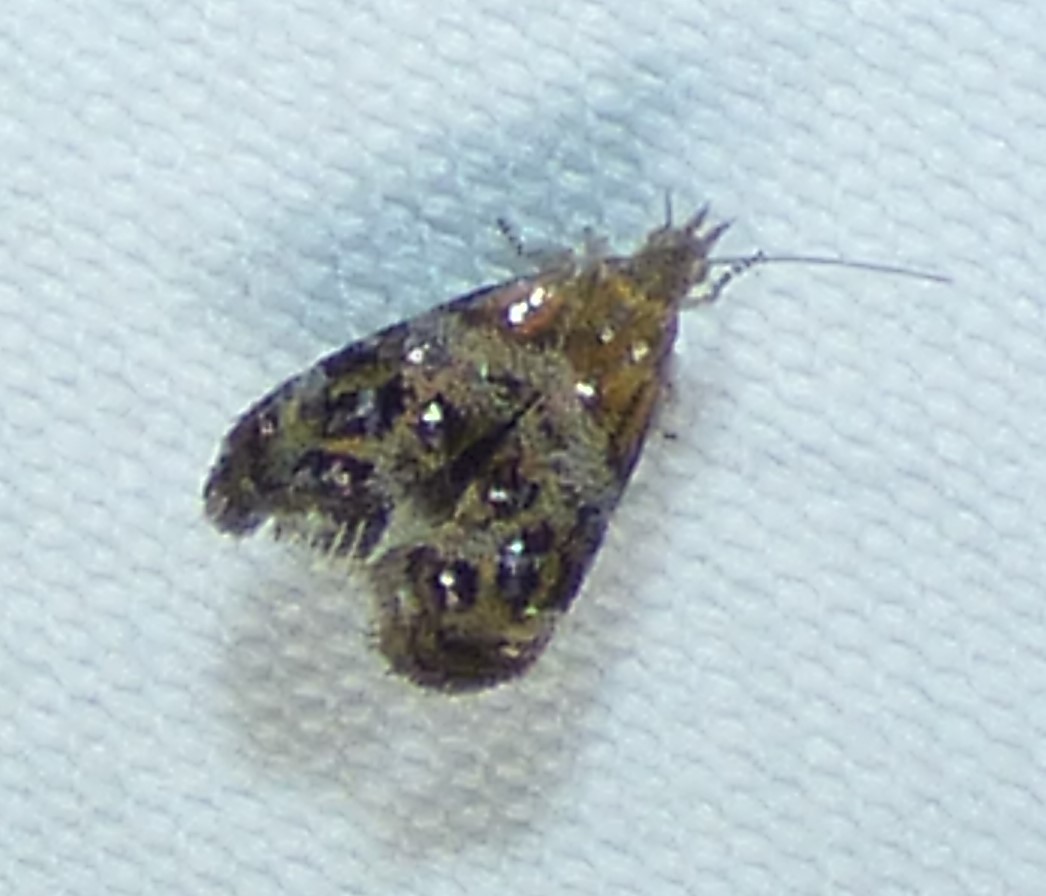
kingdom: Animalia
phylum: Arthropoda
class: Insecta
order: Lepidoptera
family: Choreutidae
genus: Tebenna
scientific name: Tebenna gnaphaliella
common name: Everlasting tebenna moth
